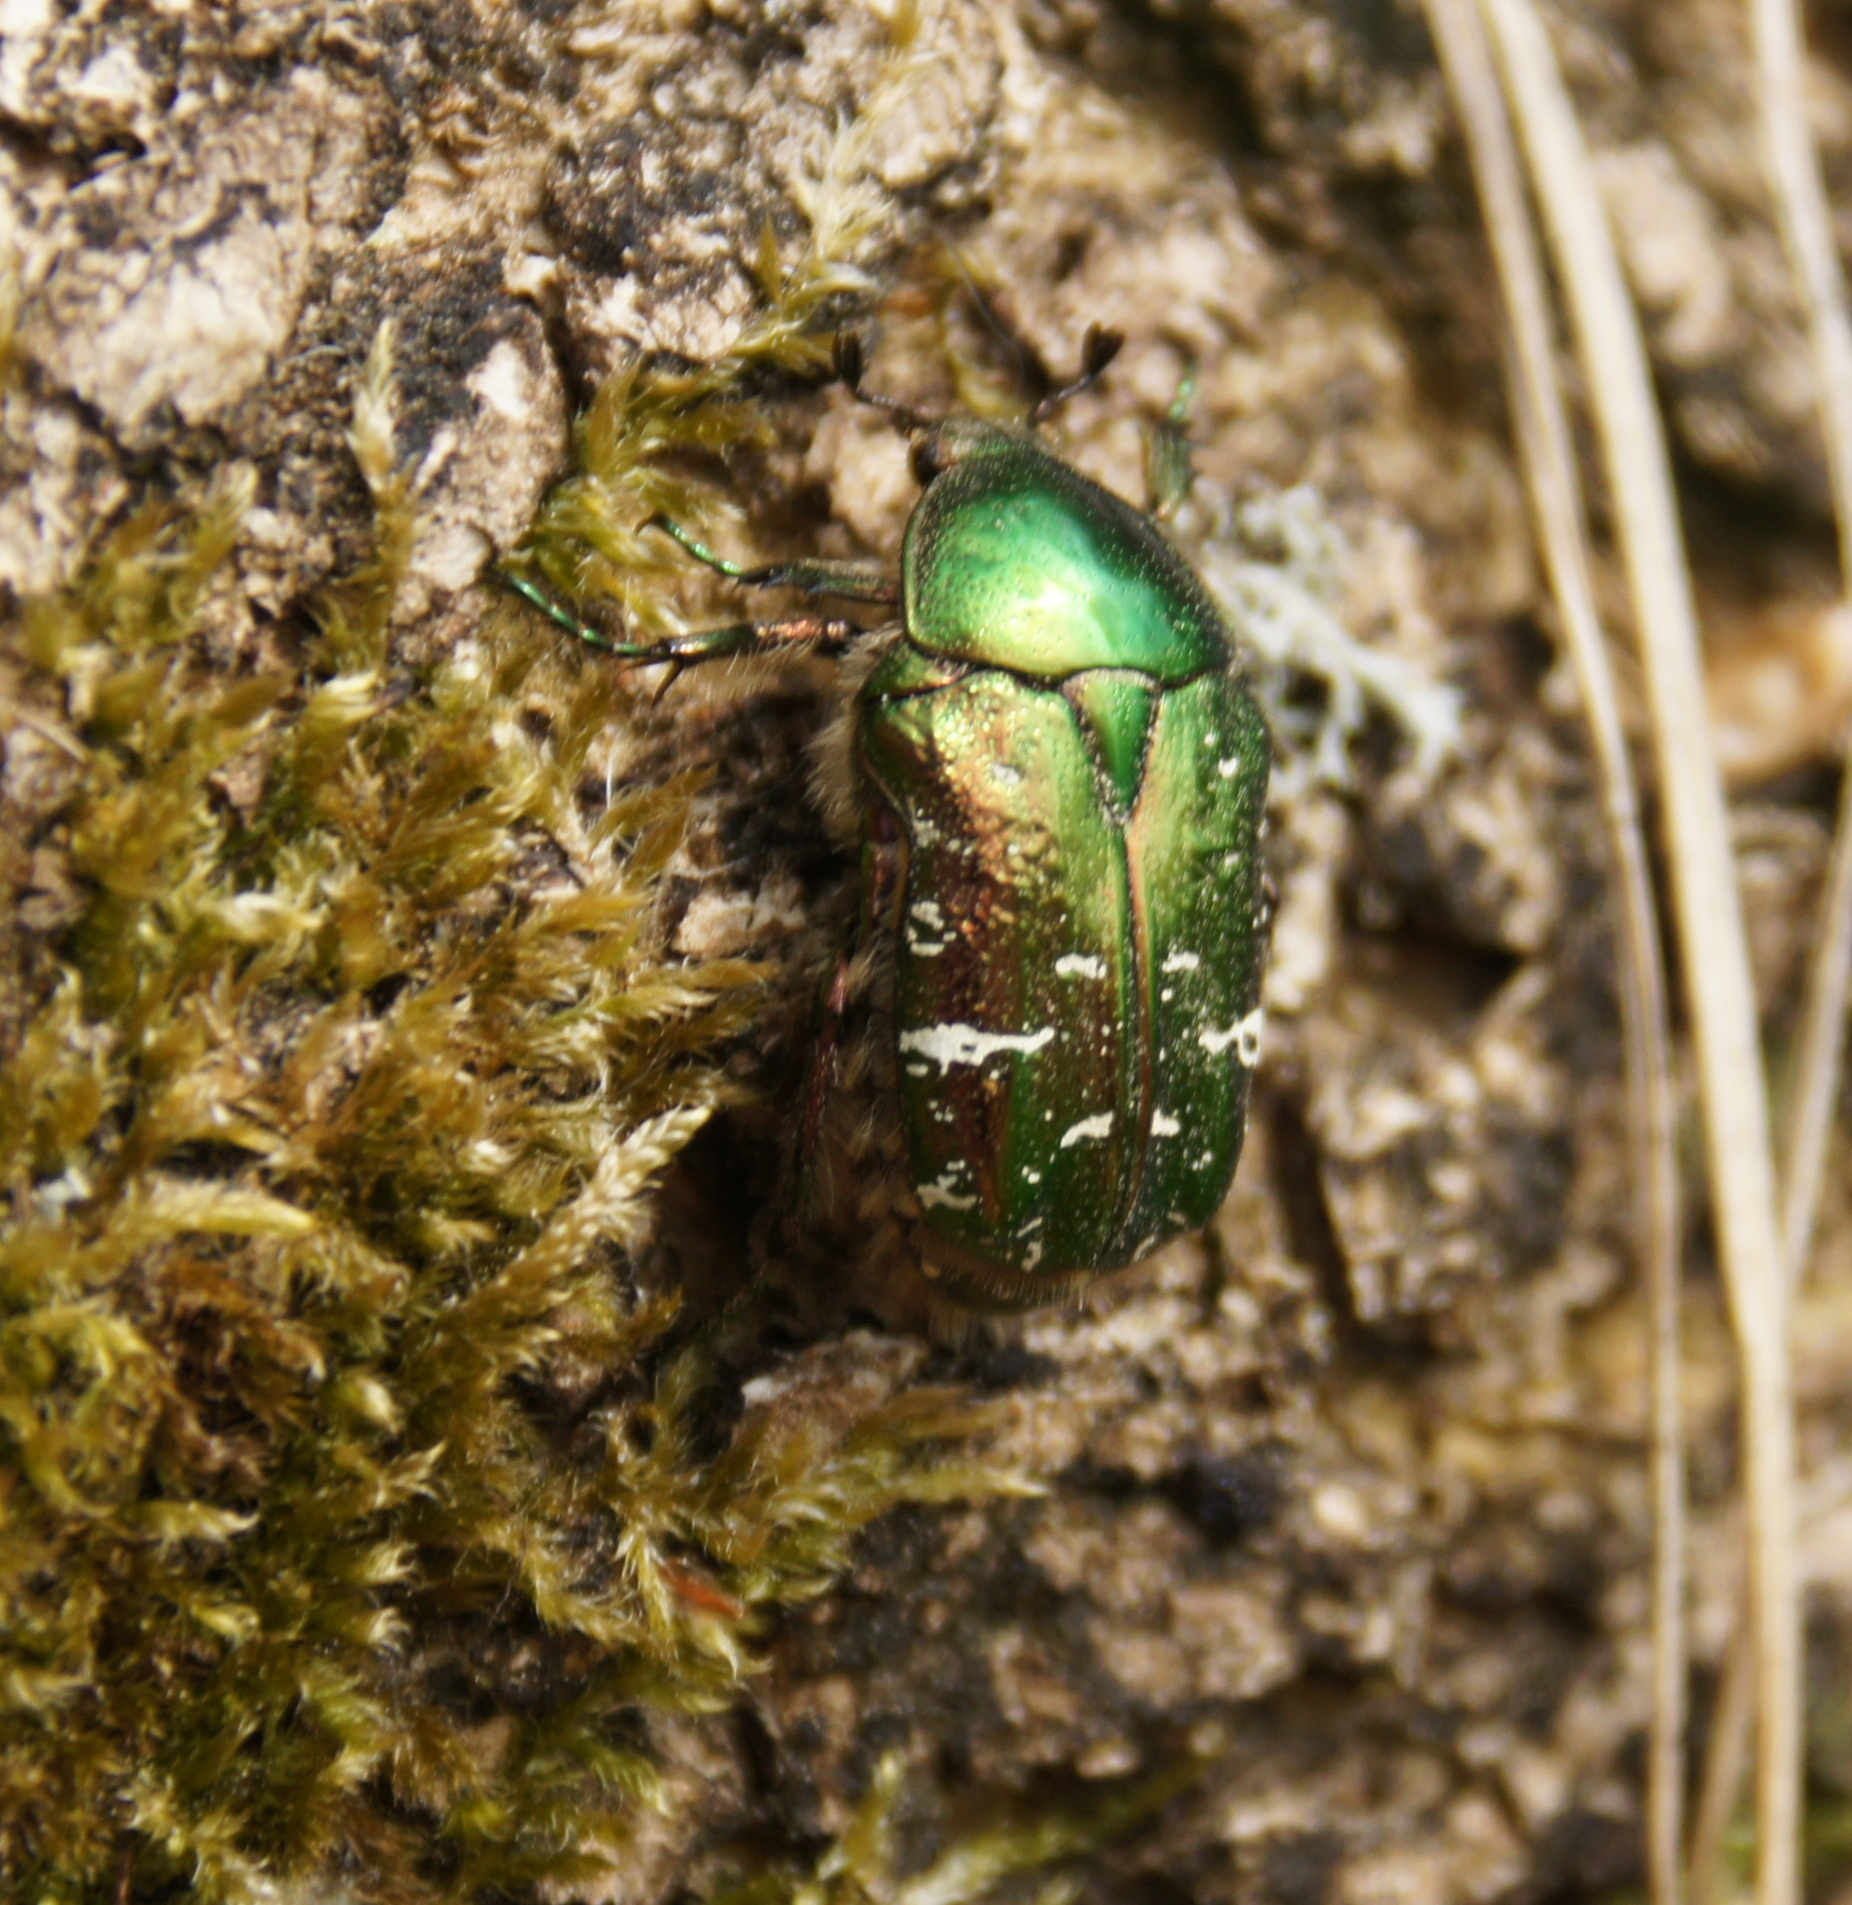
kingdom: Animalia
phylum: Arthropoda
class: Insecta
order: Coleoptera
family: Scarabaeidae
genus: Cetonia
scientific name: Cetonia aurata
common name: Rose chafer
